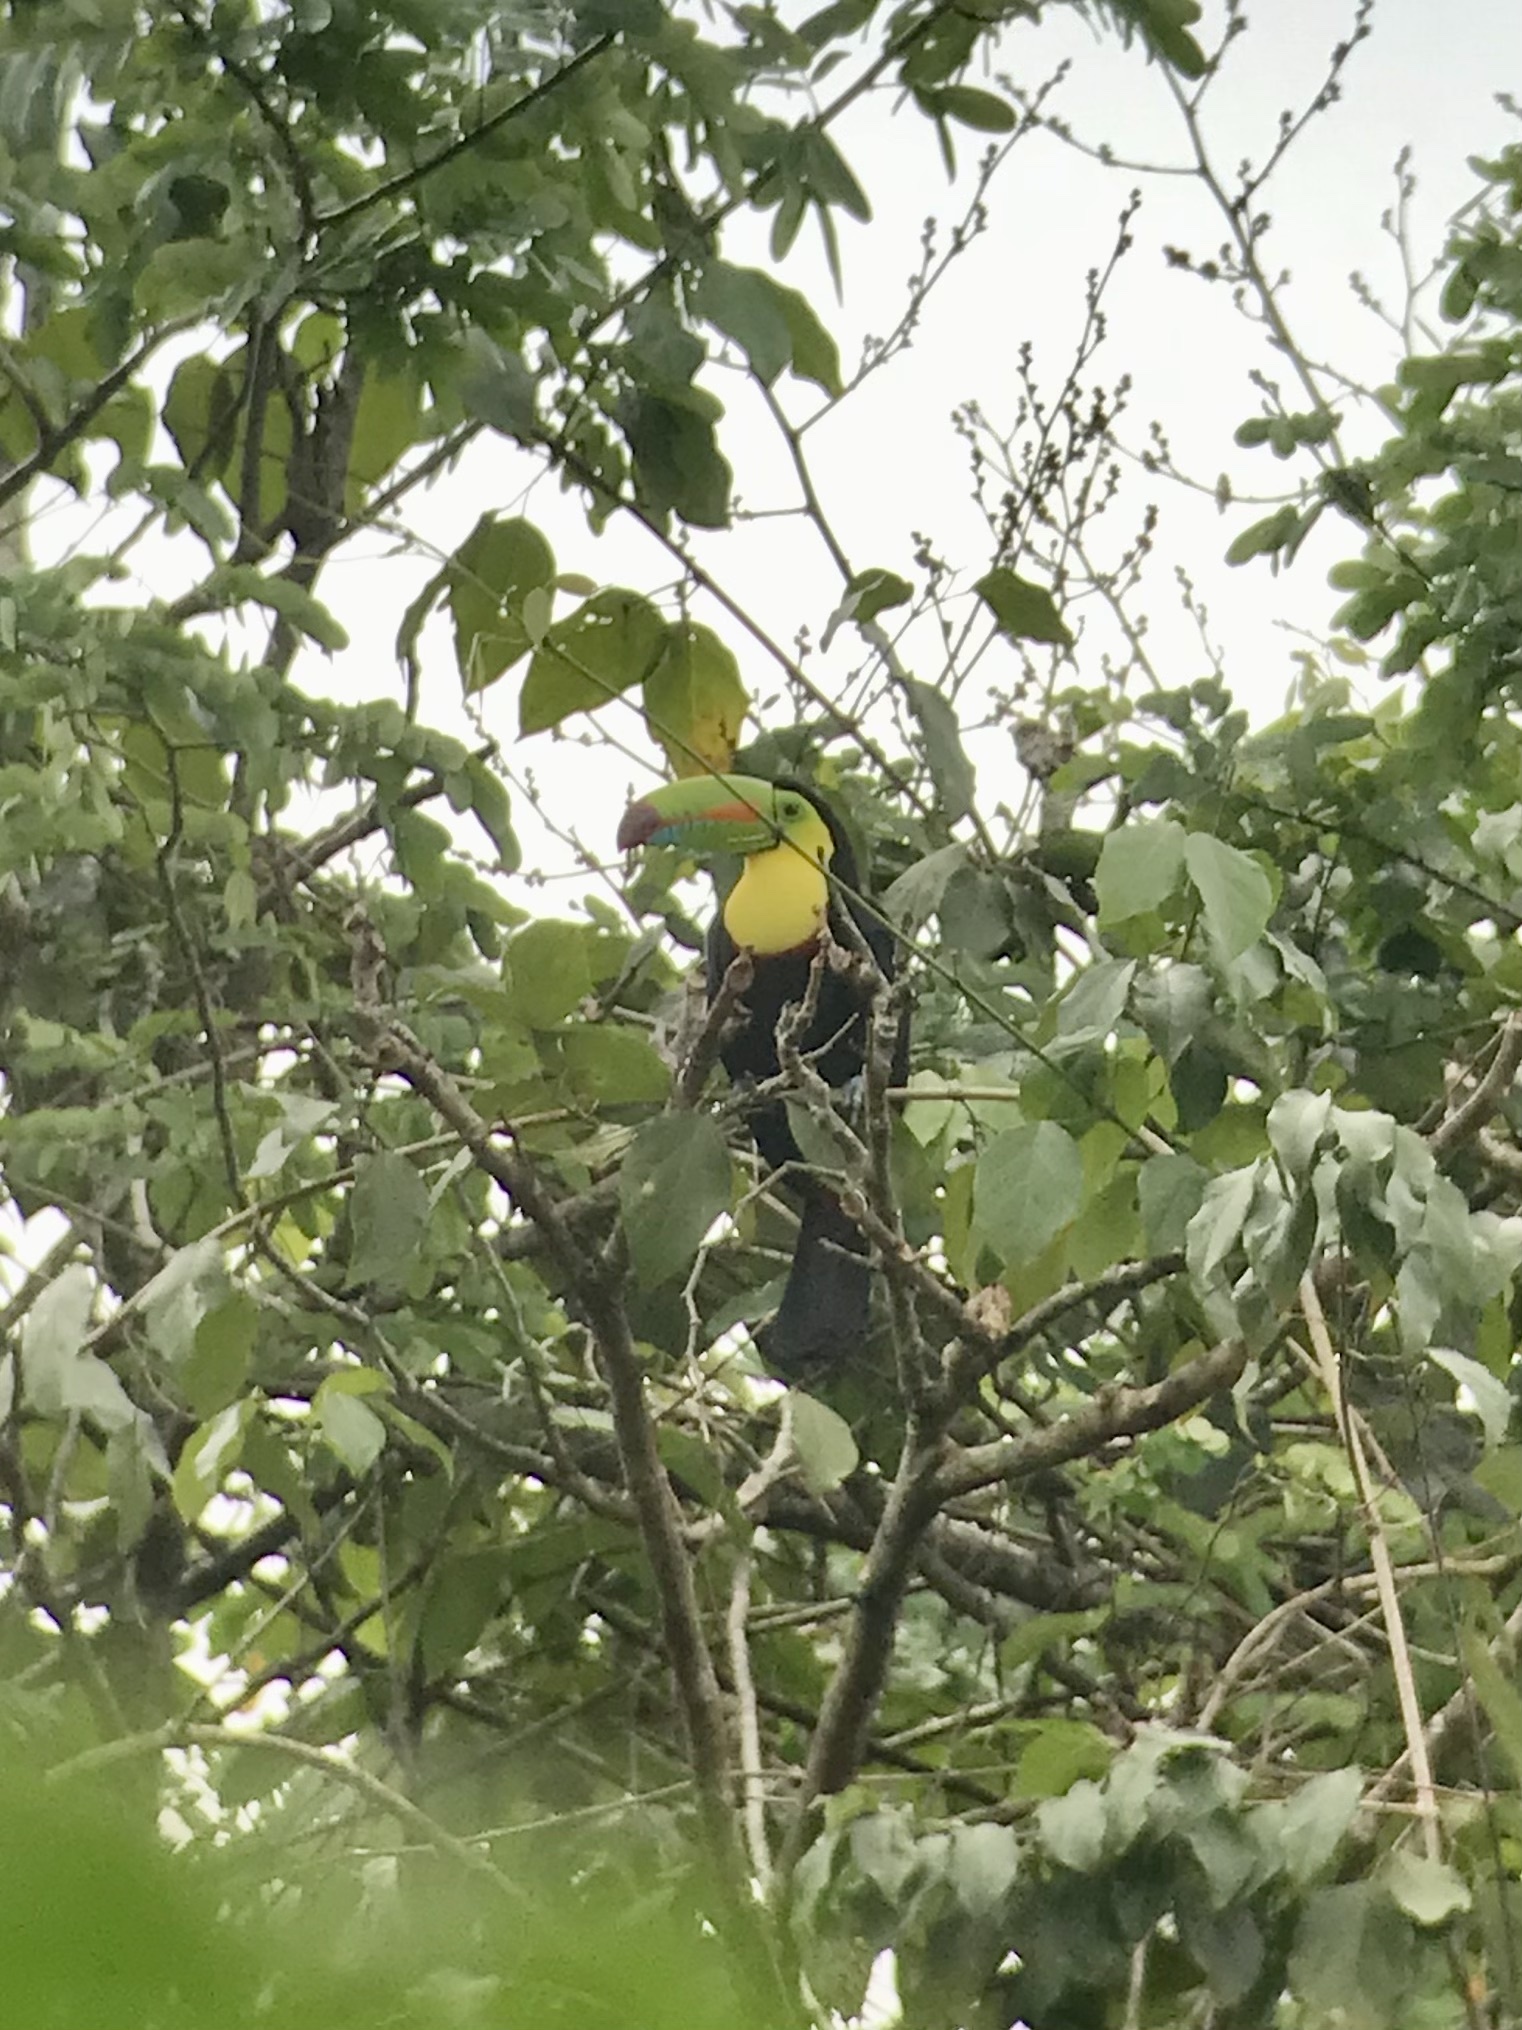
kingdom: Animalia
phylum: Chordata
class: Aves
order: Piciformes
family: Ramphastidae
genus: Ramphastos
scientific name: Ramphastos sulfuratus
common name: Keel-billed toucan
